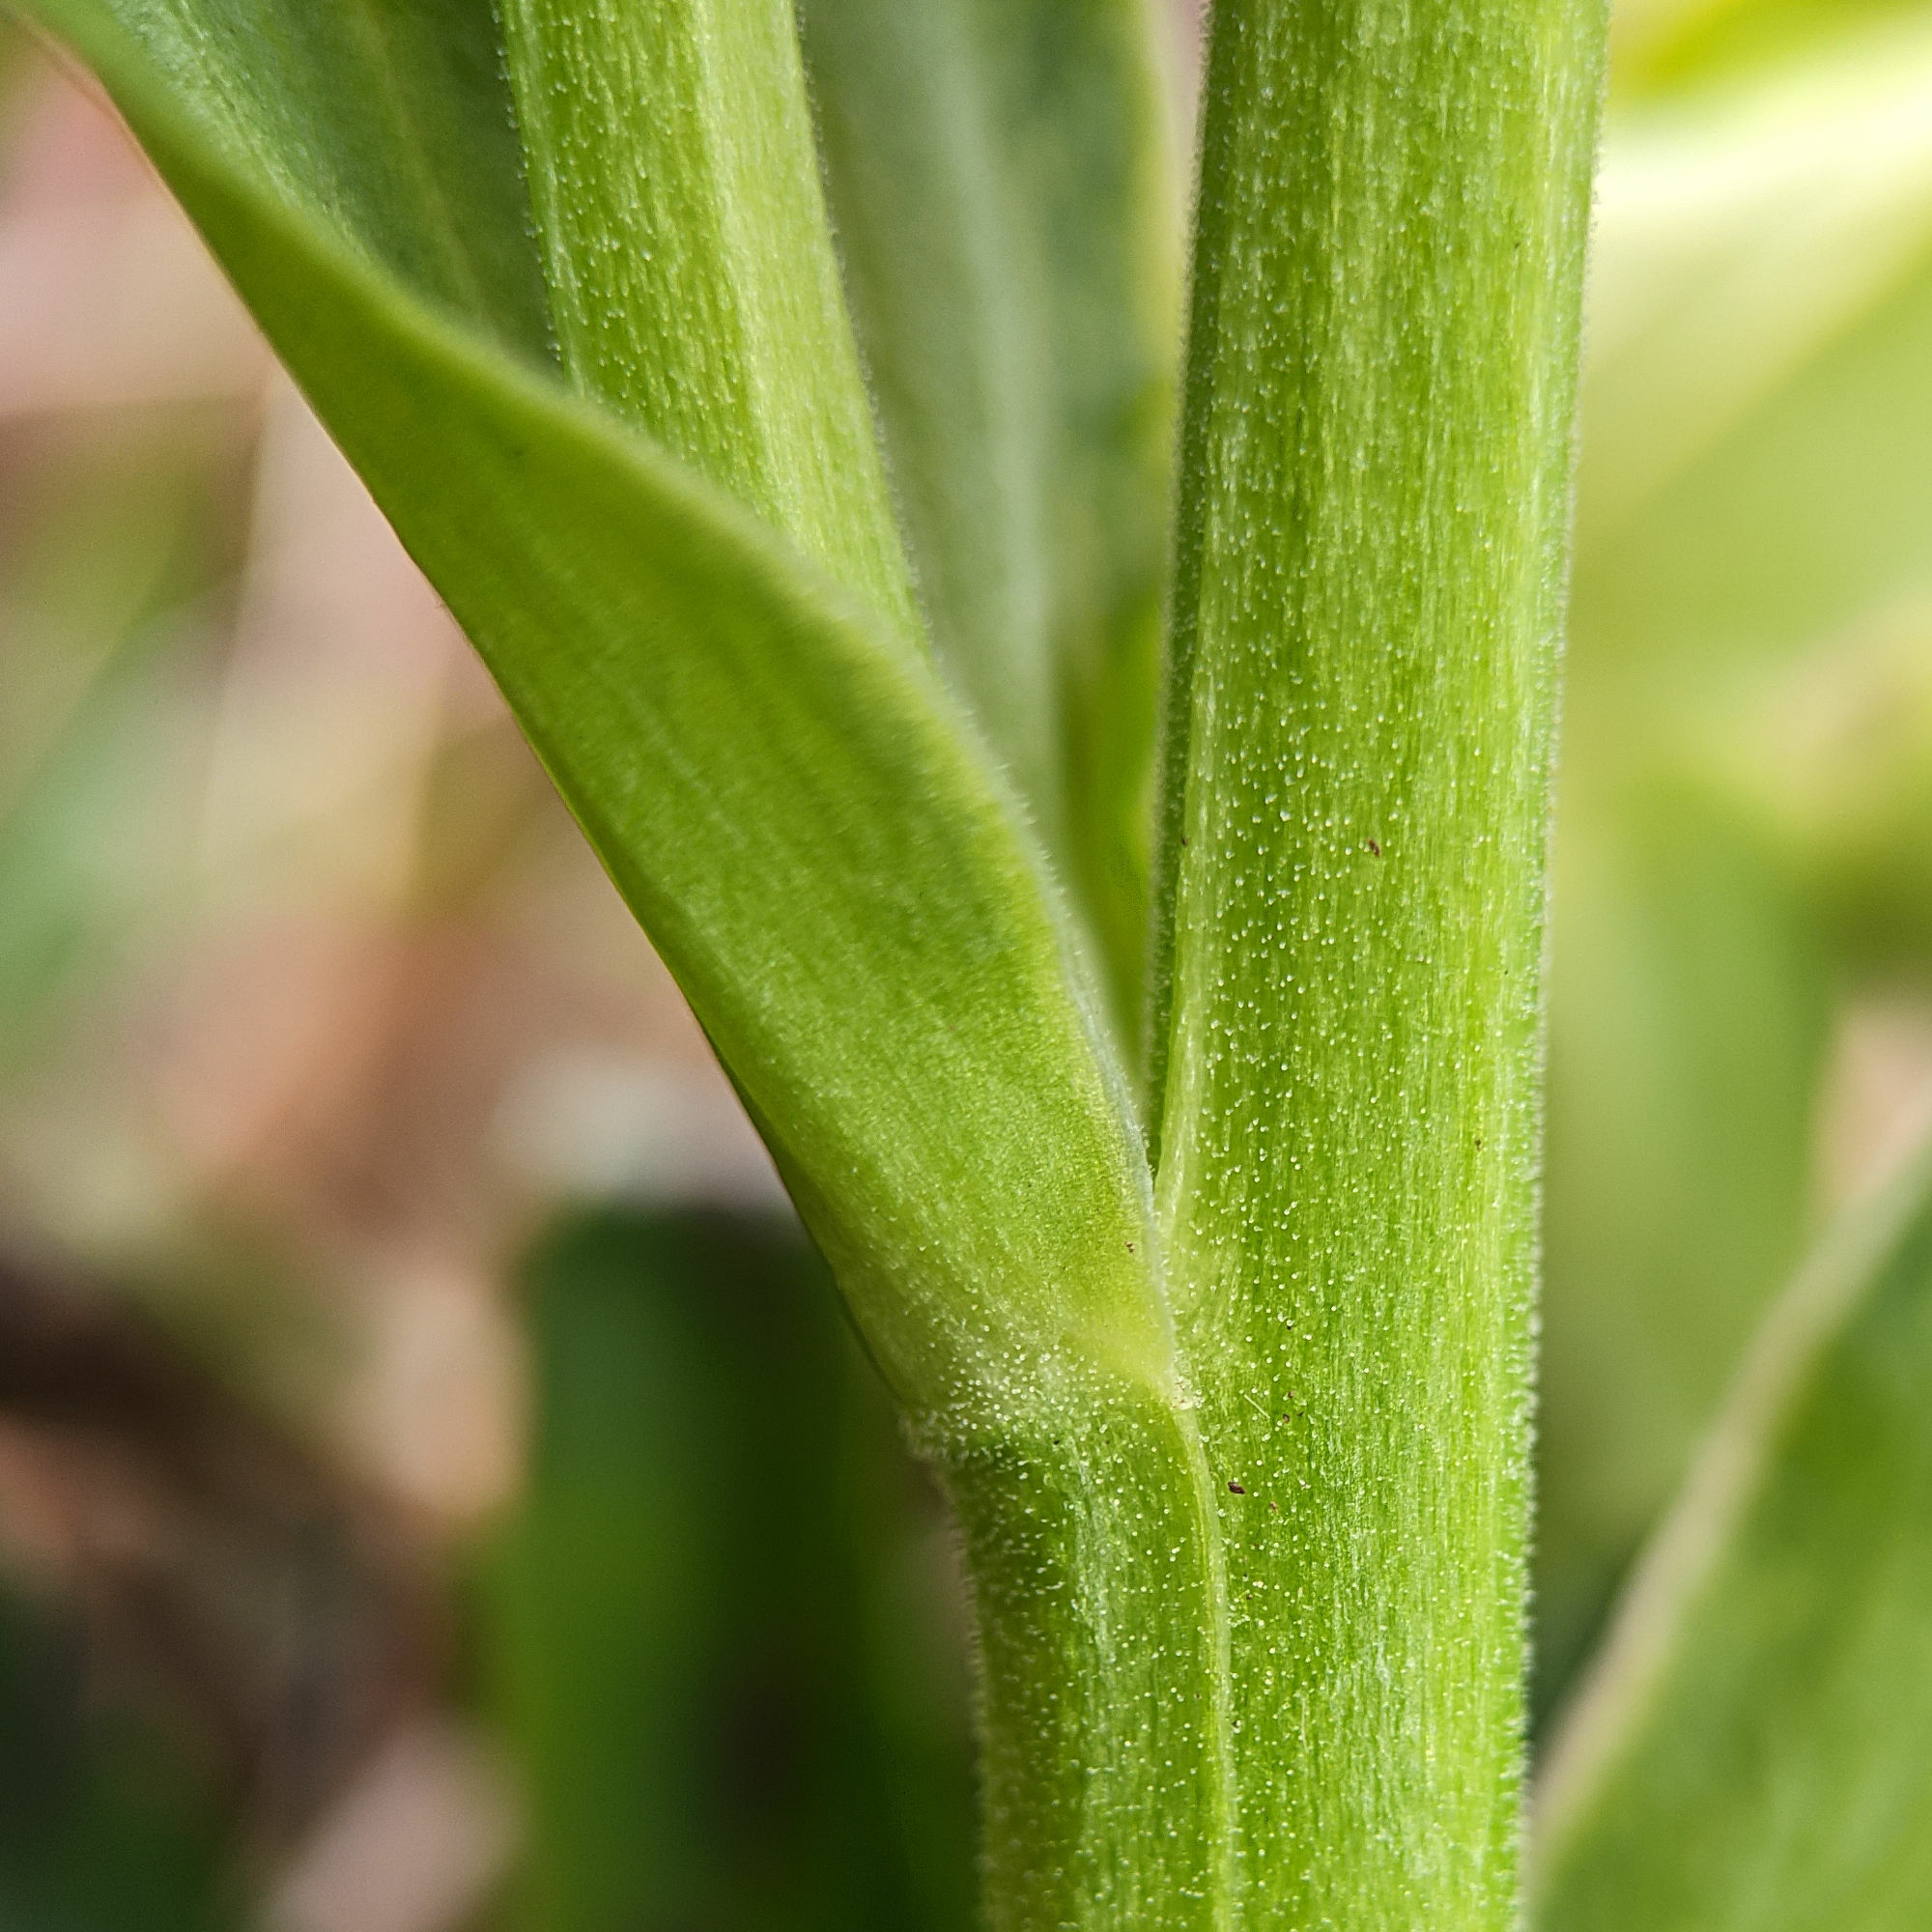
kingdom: Plantae
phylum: Tracheophyta
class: Magnoliopsida
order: Ranunculales
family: Ranunculaceae
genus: Helleborus
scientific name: Helleborus foetidus
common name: Stinking hellebore
